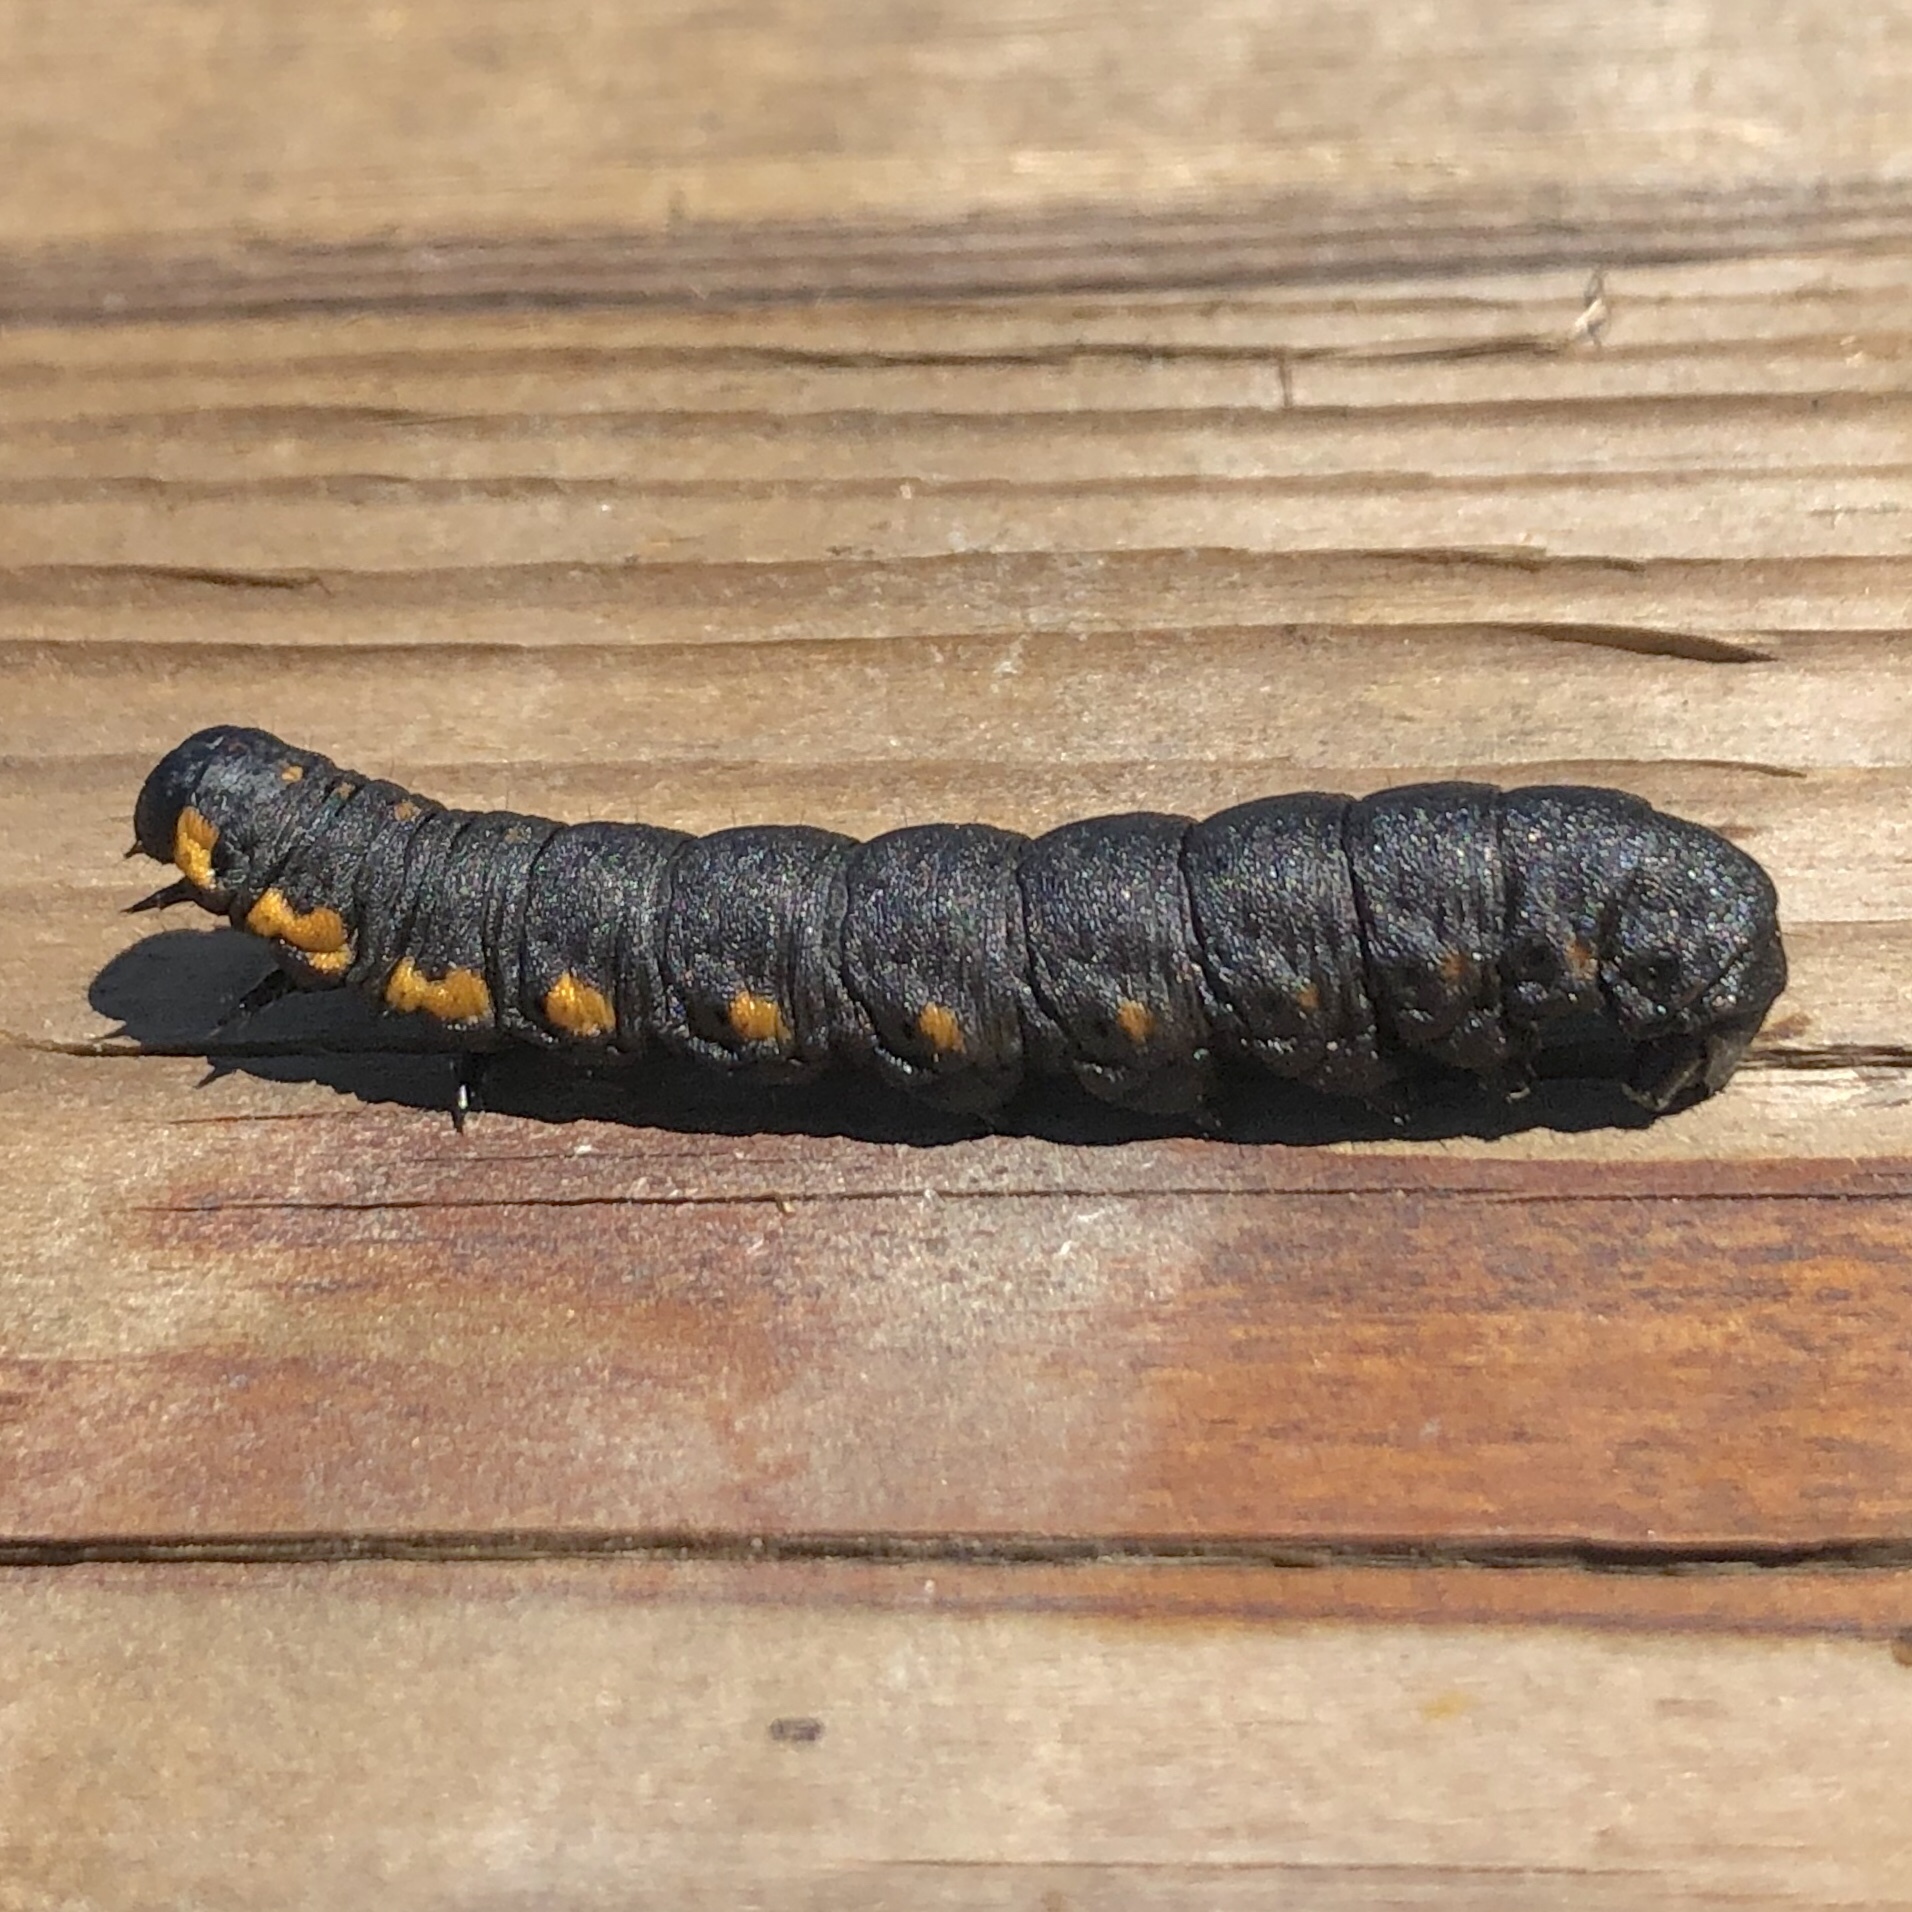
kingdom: Animalia
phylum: Arthropoda
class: Insecta
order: Lepidoptera
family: Noctuidae
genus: Cucullia
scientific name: Cucullia intermedia
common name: Goldenrod cutworm
